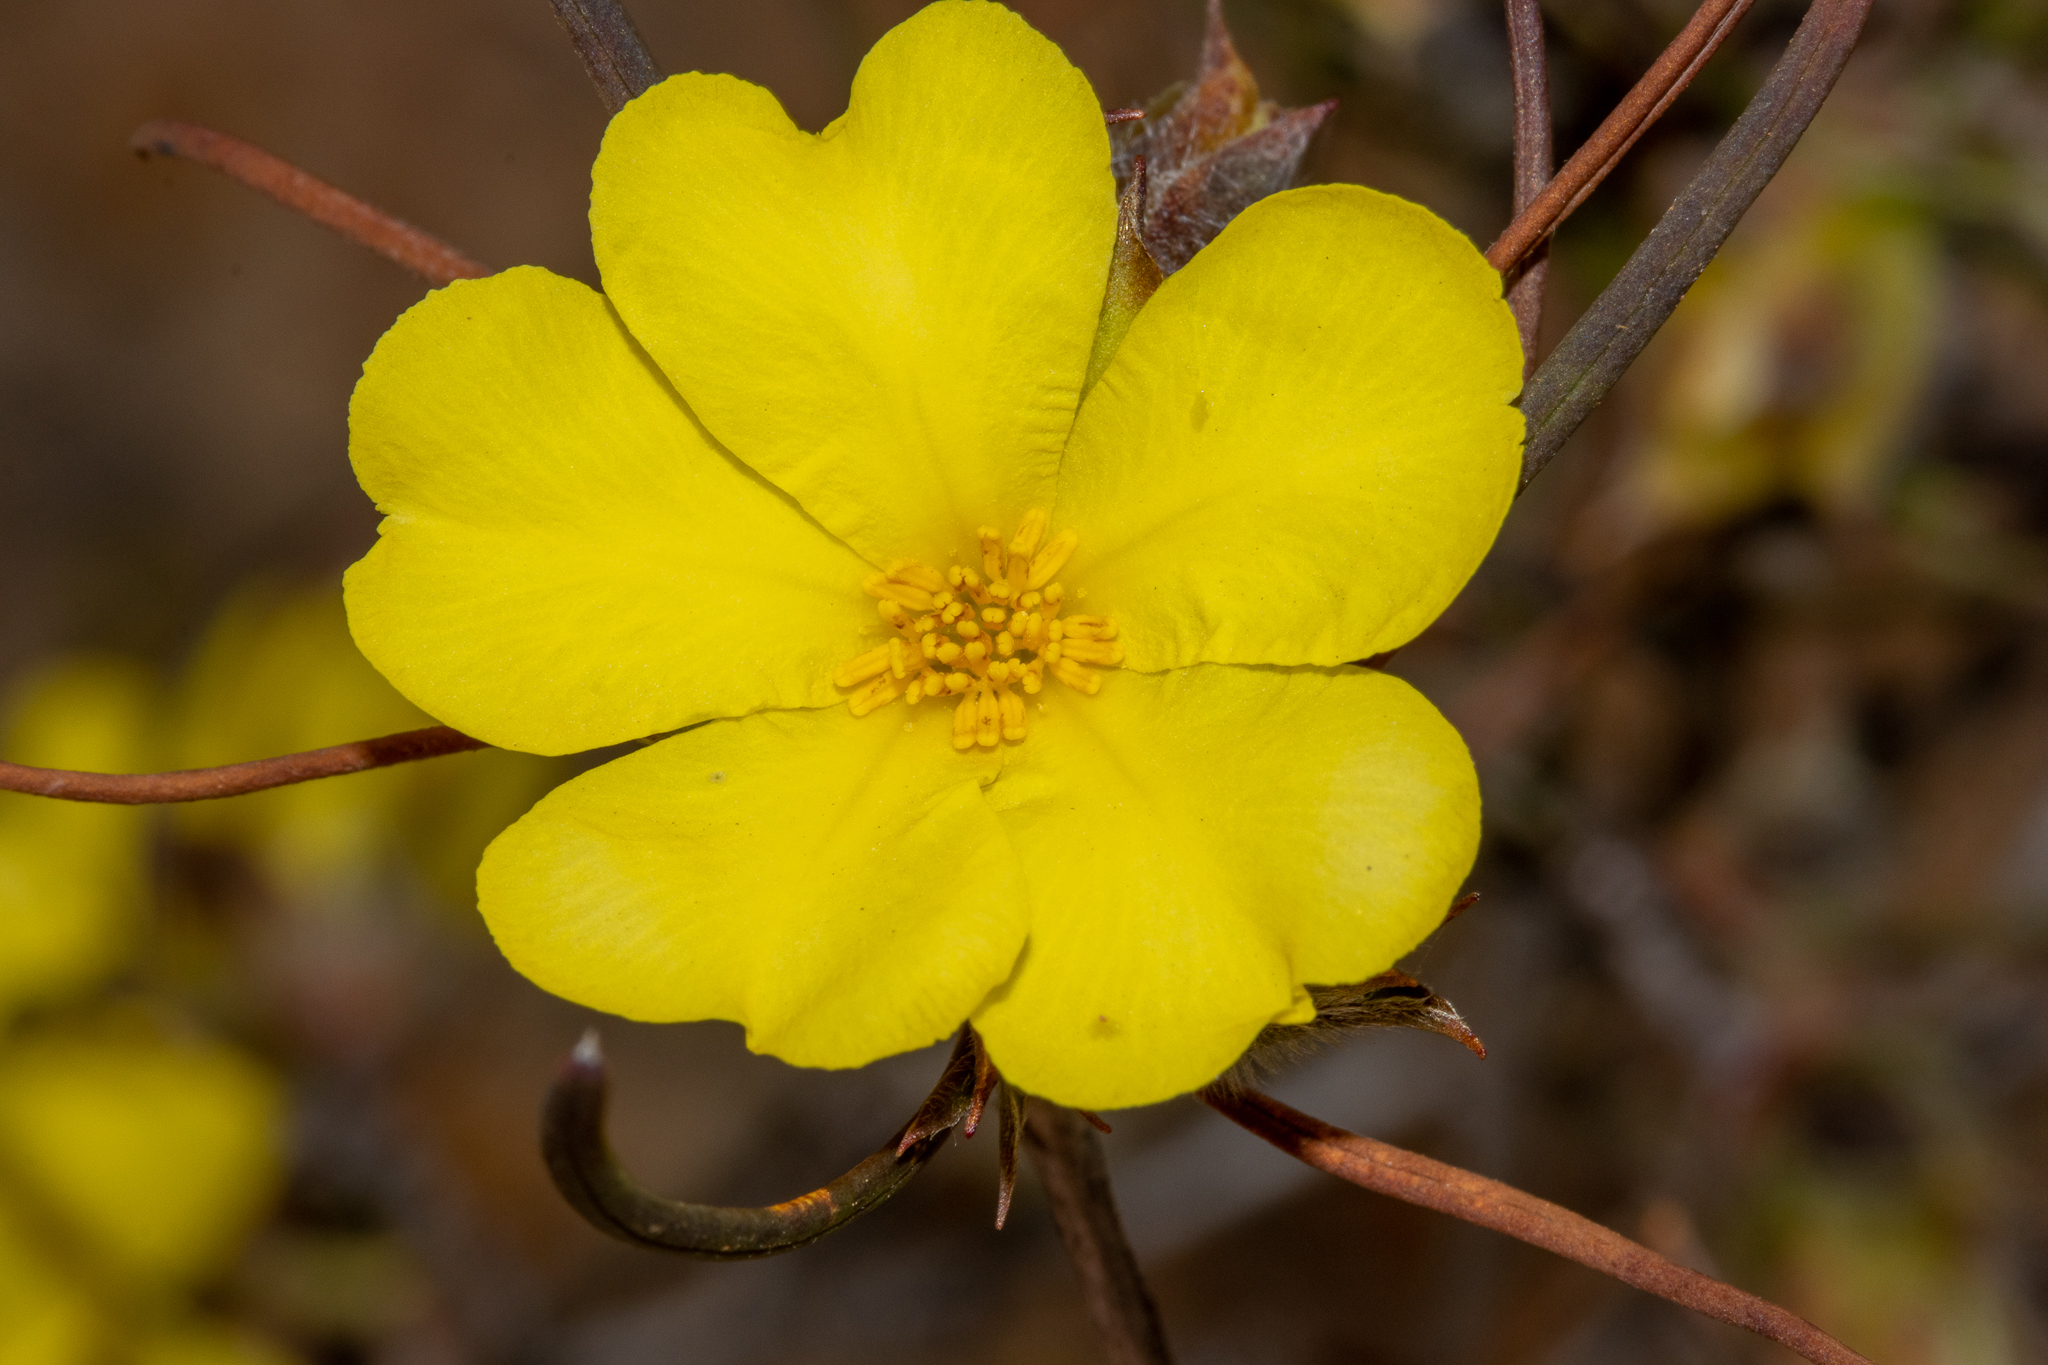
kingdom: Plantae
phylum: Tracheophyta
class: Magnoliopsida
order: Dilleniales
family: Dilleniaceae
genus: Hibbertia
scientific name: Hibbertia
